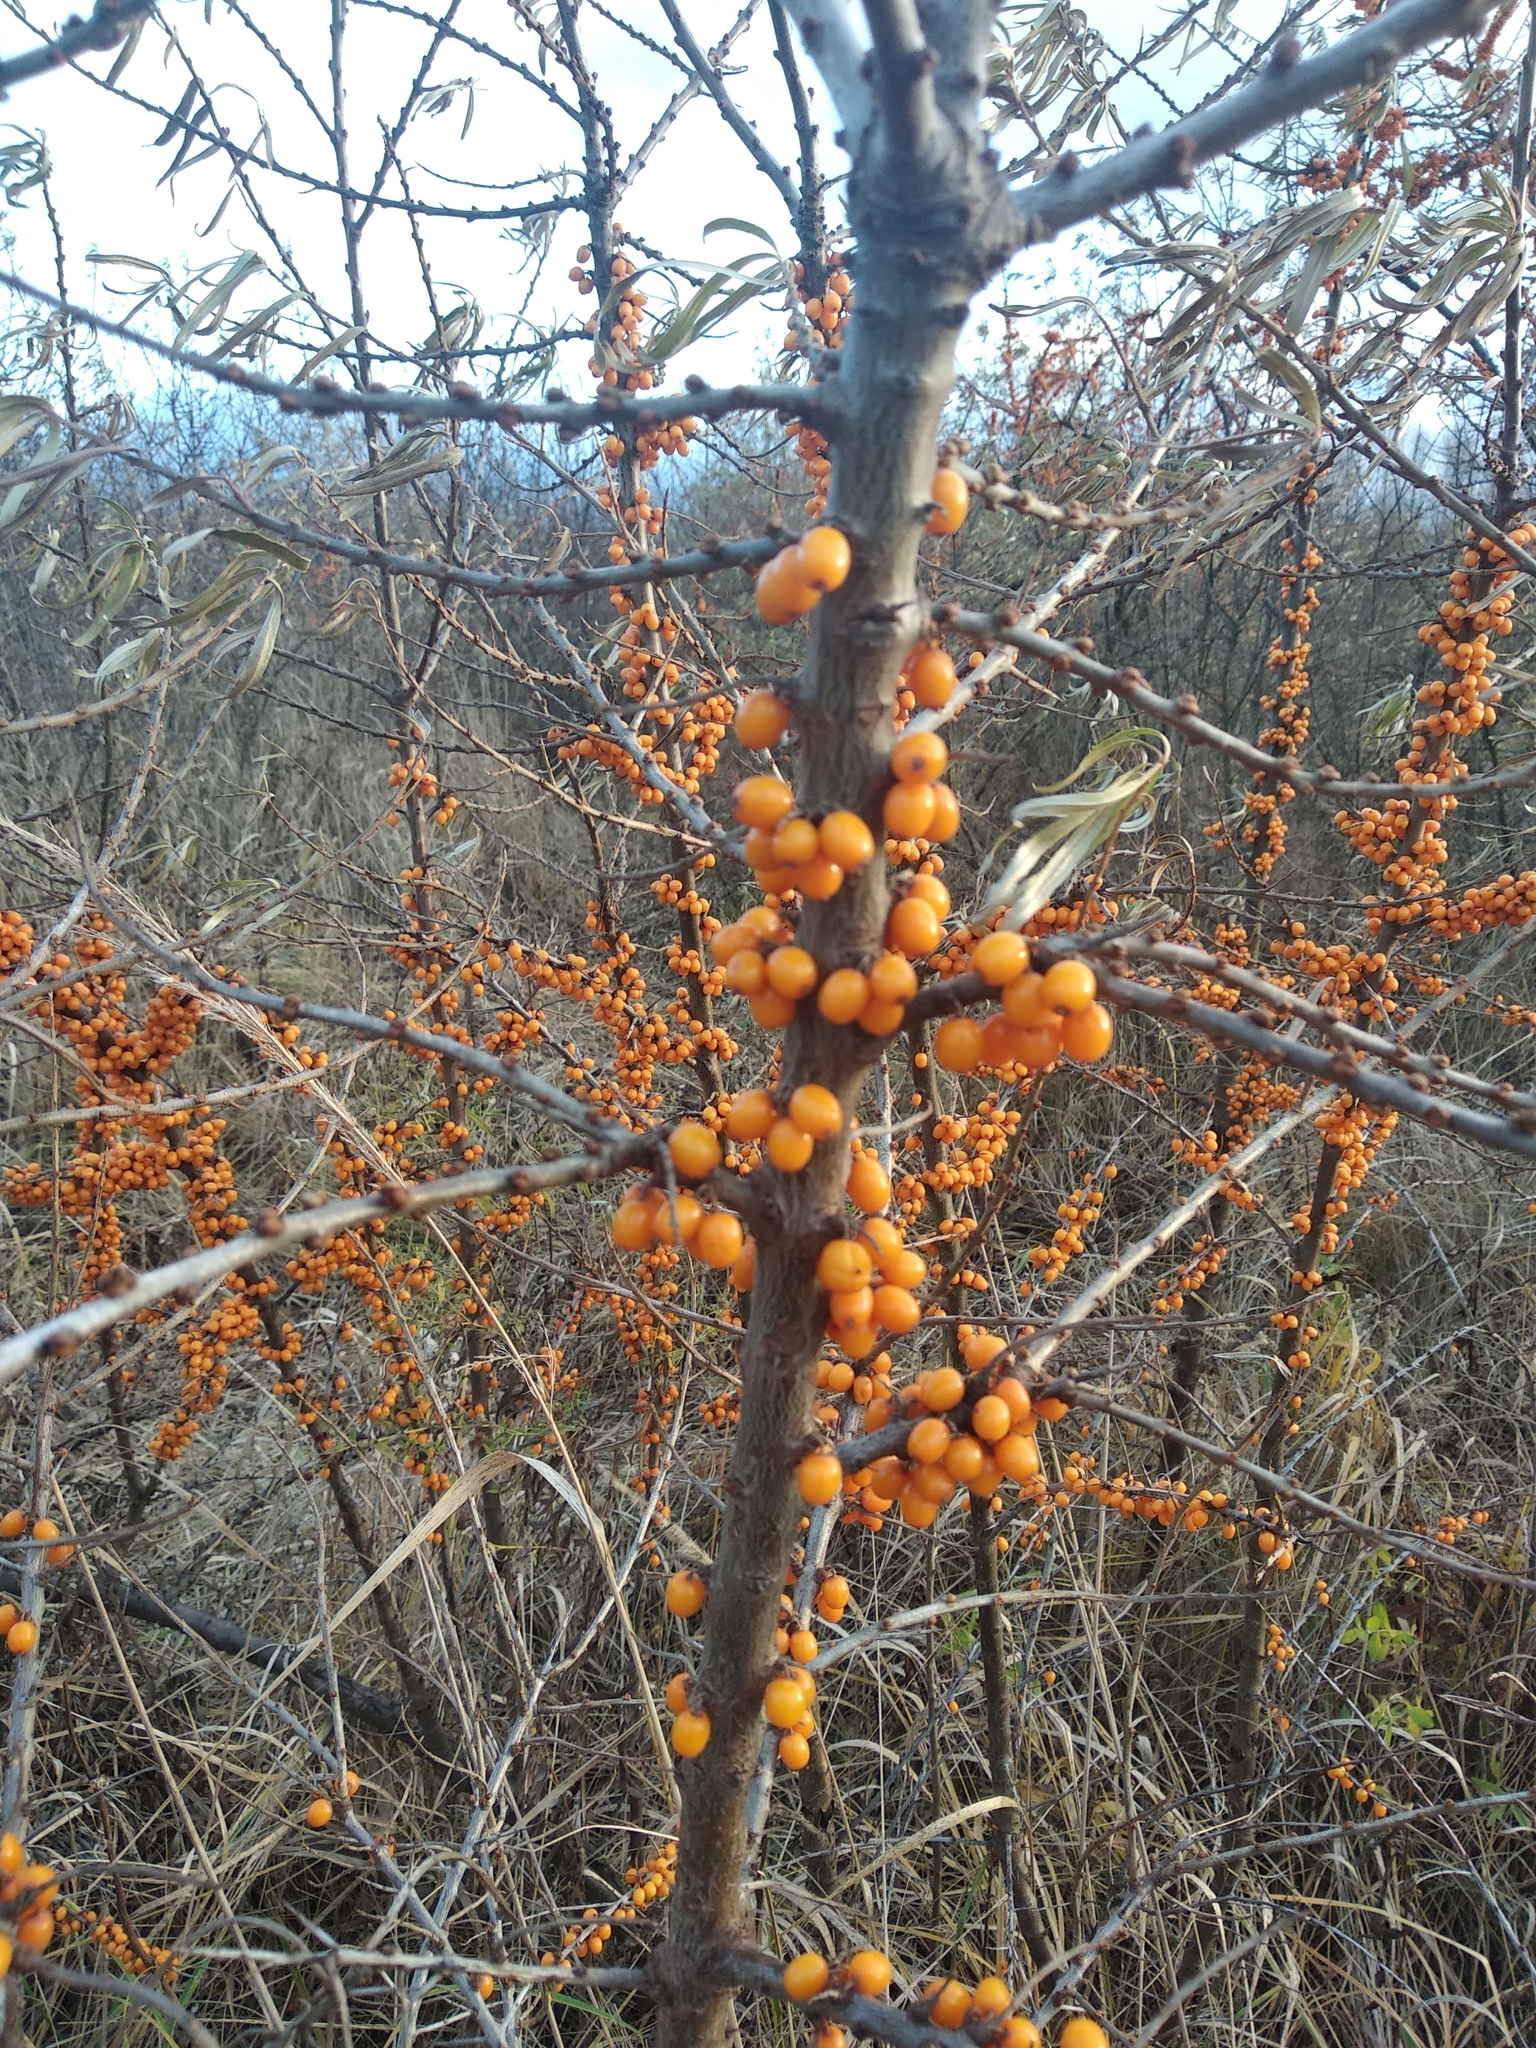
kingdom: Plantae
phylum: Tracheophyta
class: Magnoliopsida
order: Rosales
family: Elaeagnaceae
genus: Hippophae
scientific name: Hippophae rhamnoides
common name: Sea-buckthorn
